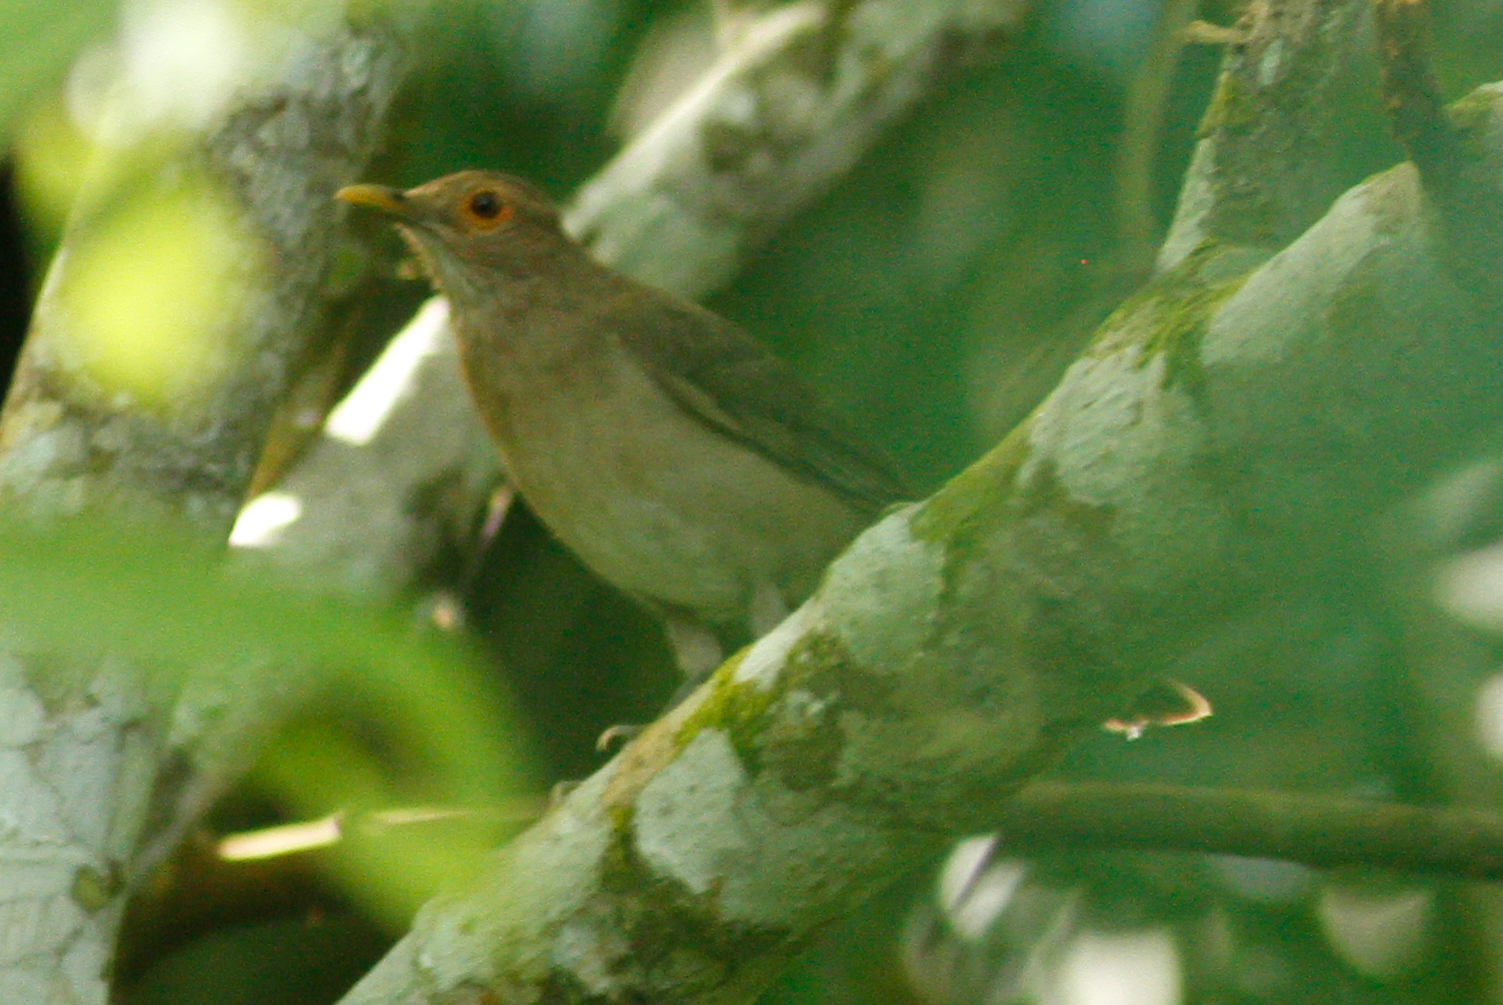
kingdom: Animalia
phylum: Chordata
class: Aves
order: Passeriformes
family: Turdidae
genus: Turdus
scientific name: Turdus maculirostris
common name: Ecuadorian thrush
